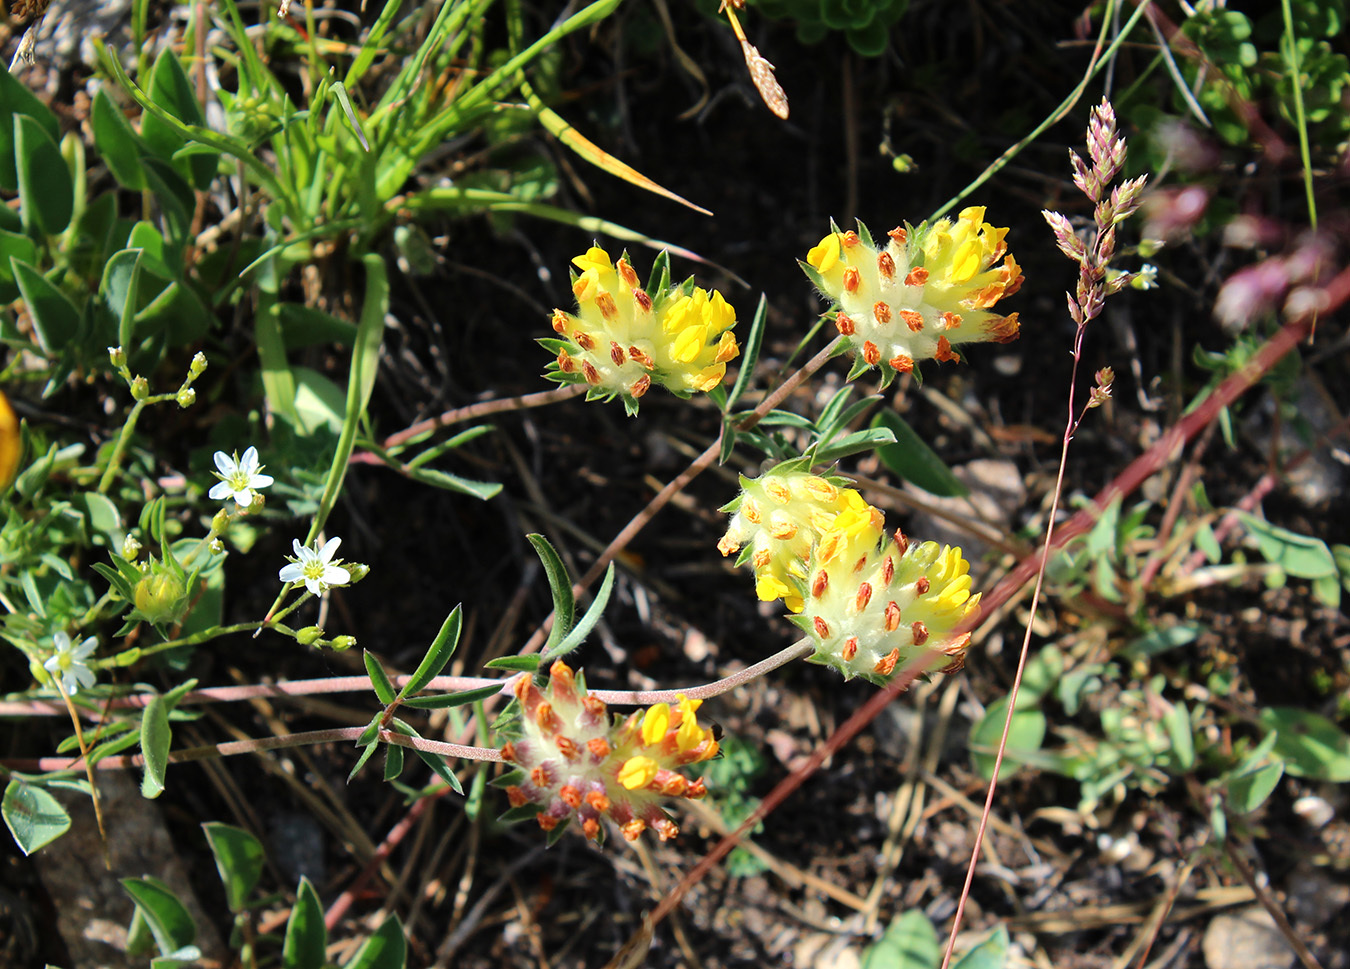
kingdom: Plantae
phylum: Tracheophyta
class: Magnoliopsida
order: Fabales
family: Fabaceae
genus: Anthyllis
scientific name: Anthyllis vulneraria
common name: Kidney vetch
